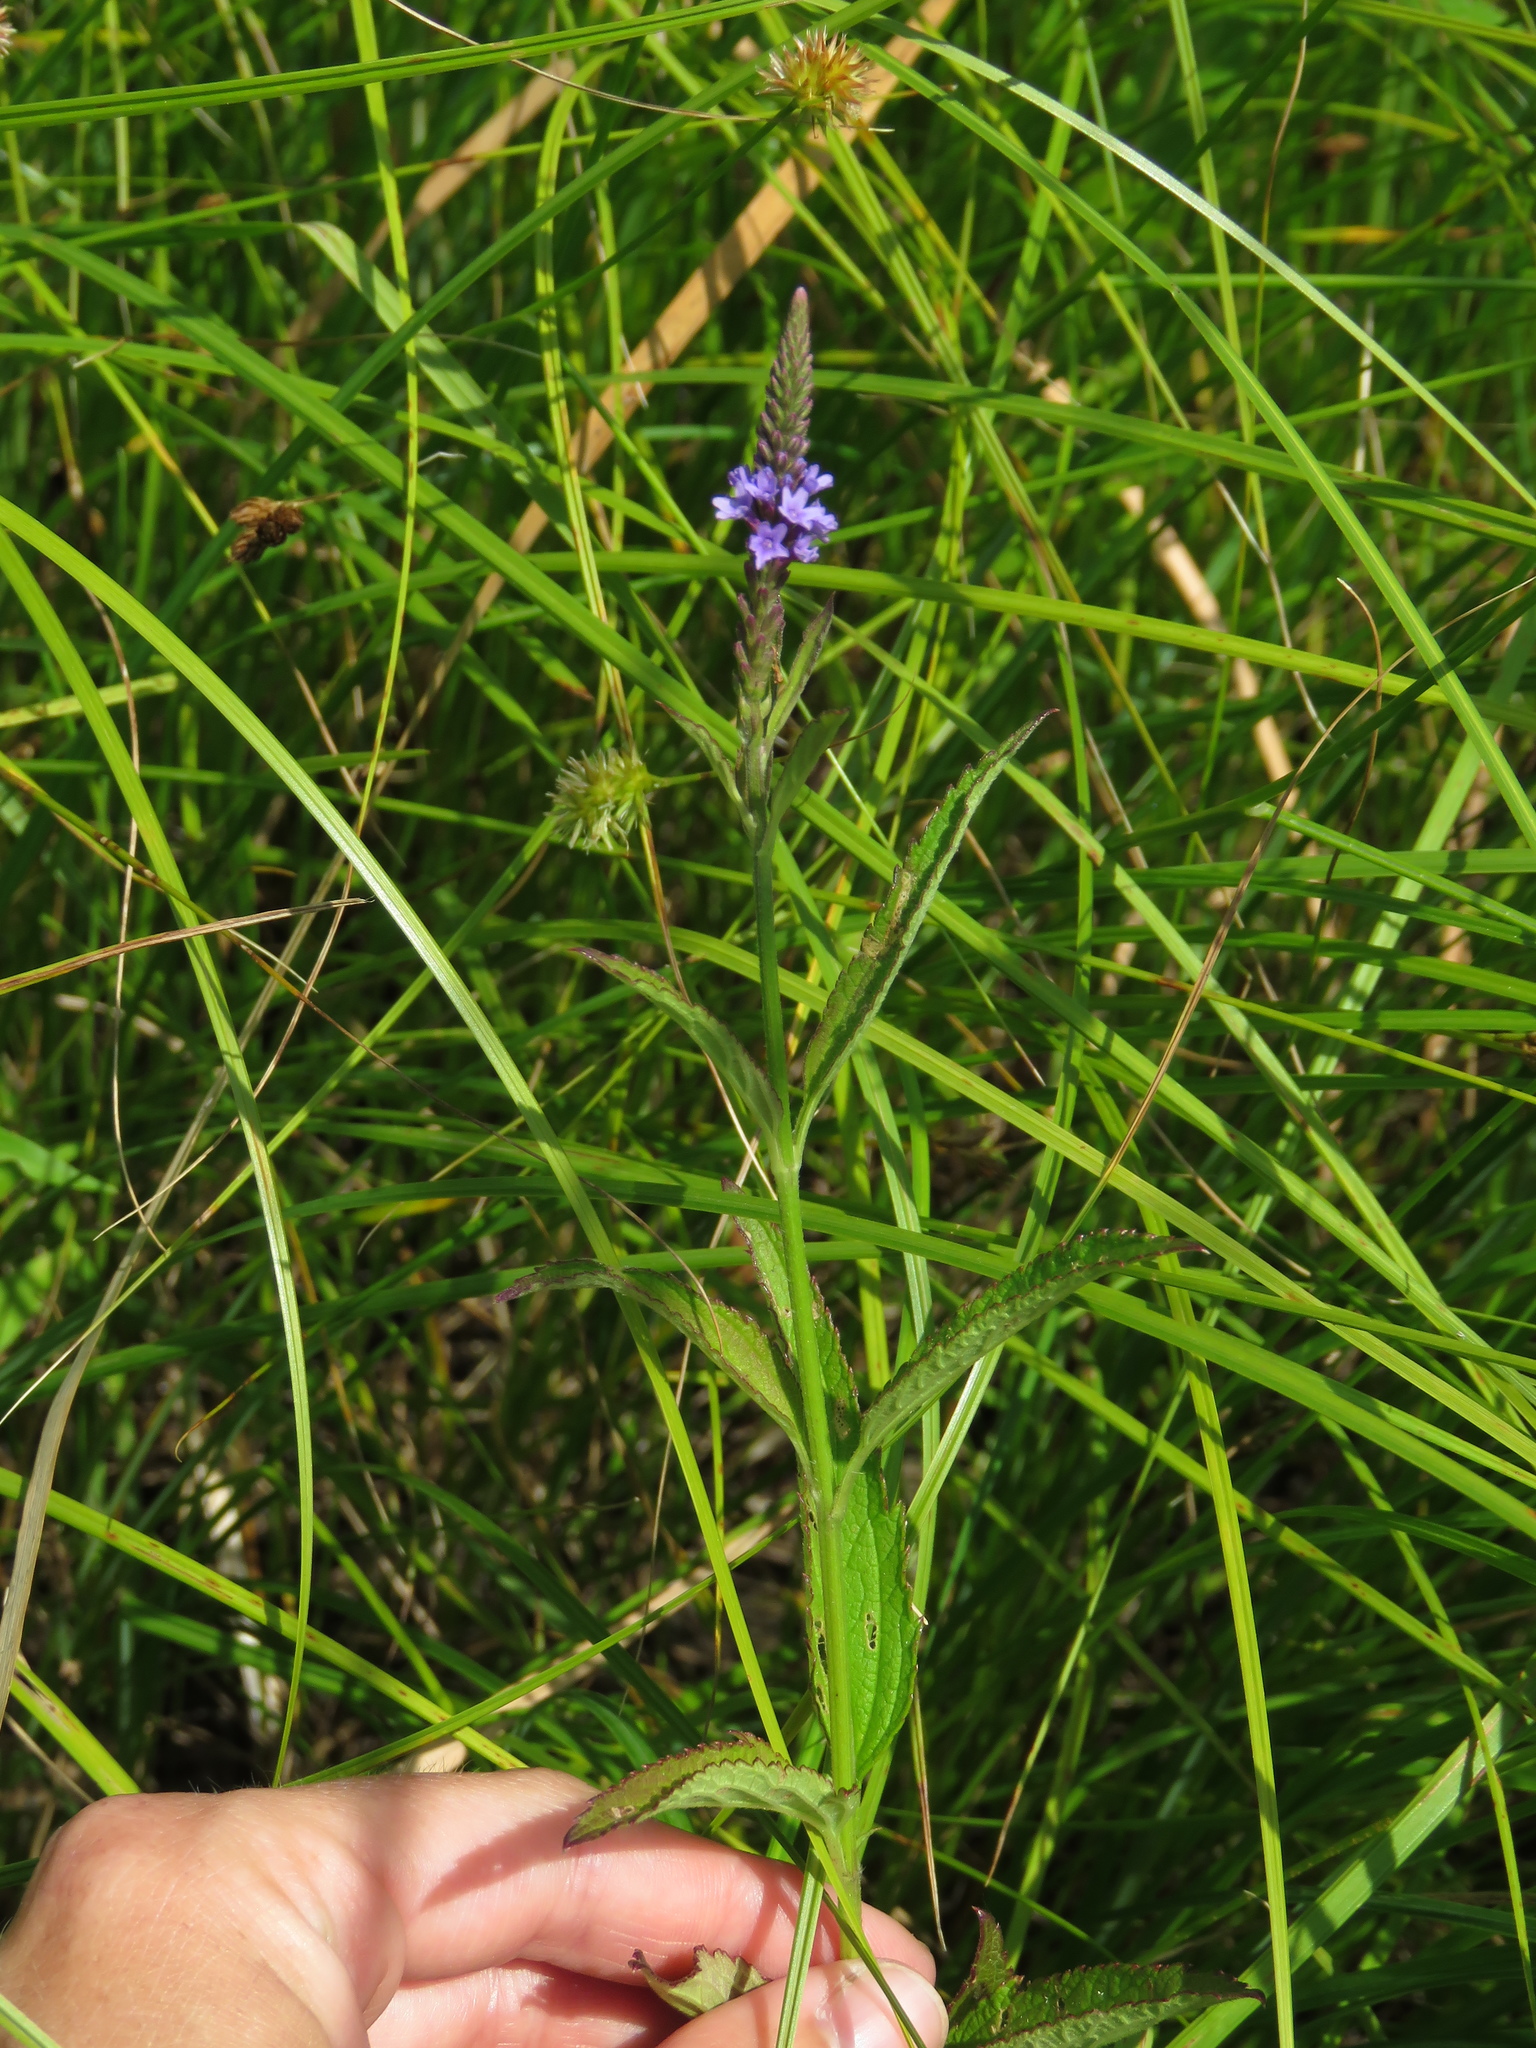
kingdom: Plantae
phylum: Tracheophyta
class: Magnoliopsida
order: Lamiales
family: Verbenaceae
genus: Verbena
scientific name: Verbena hastata
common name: American blue vervain
